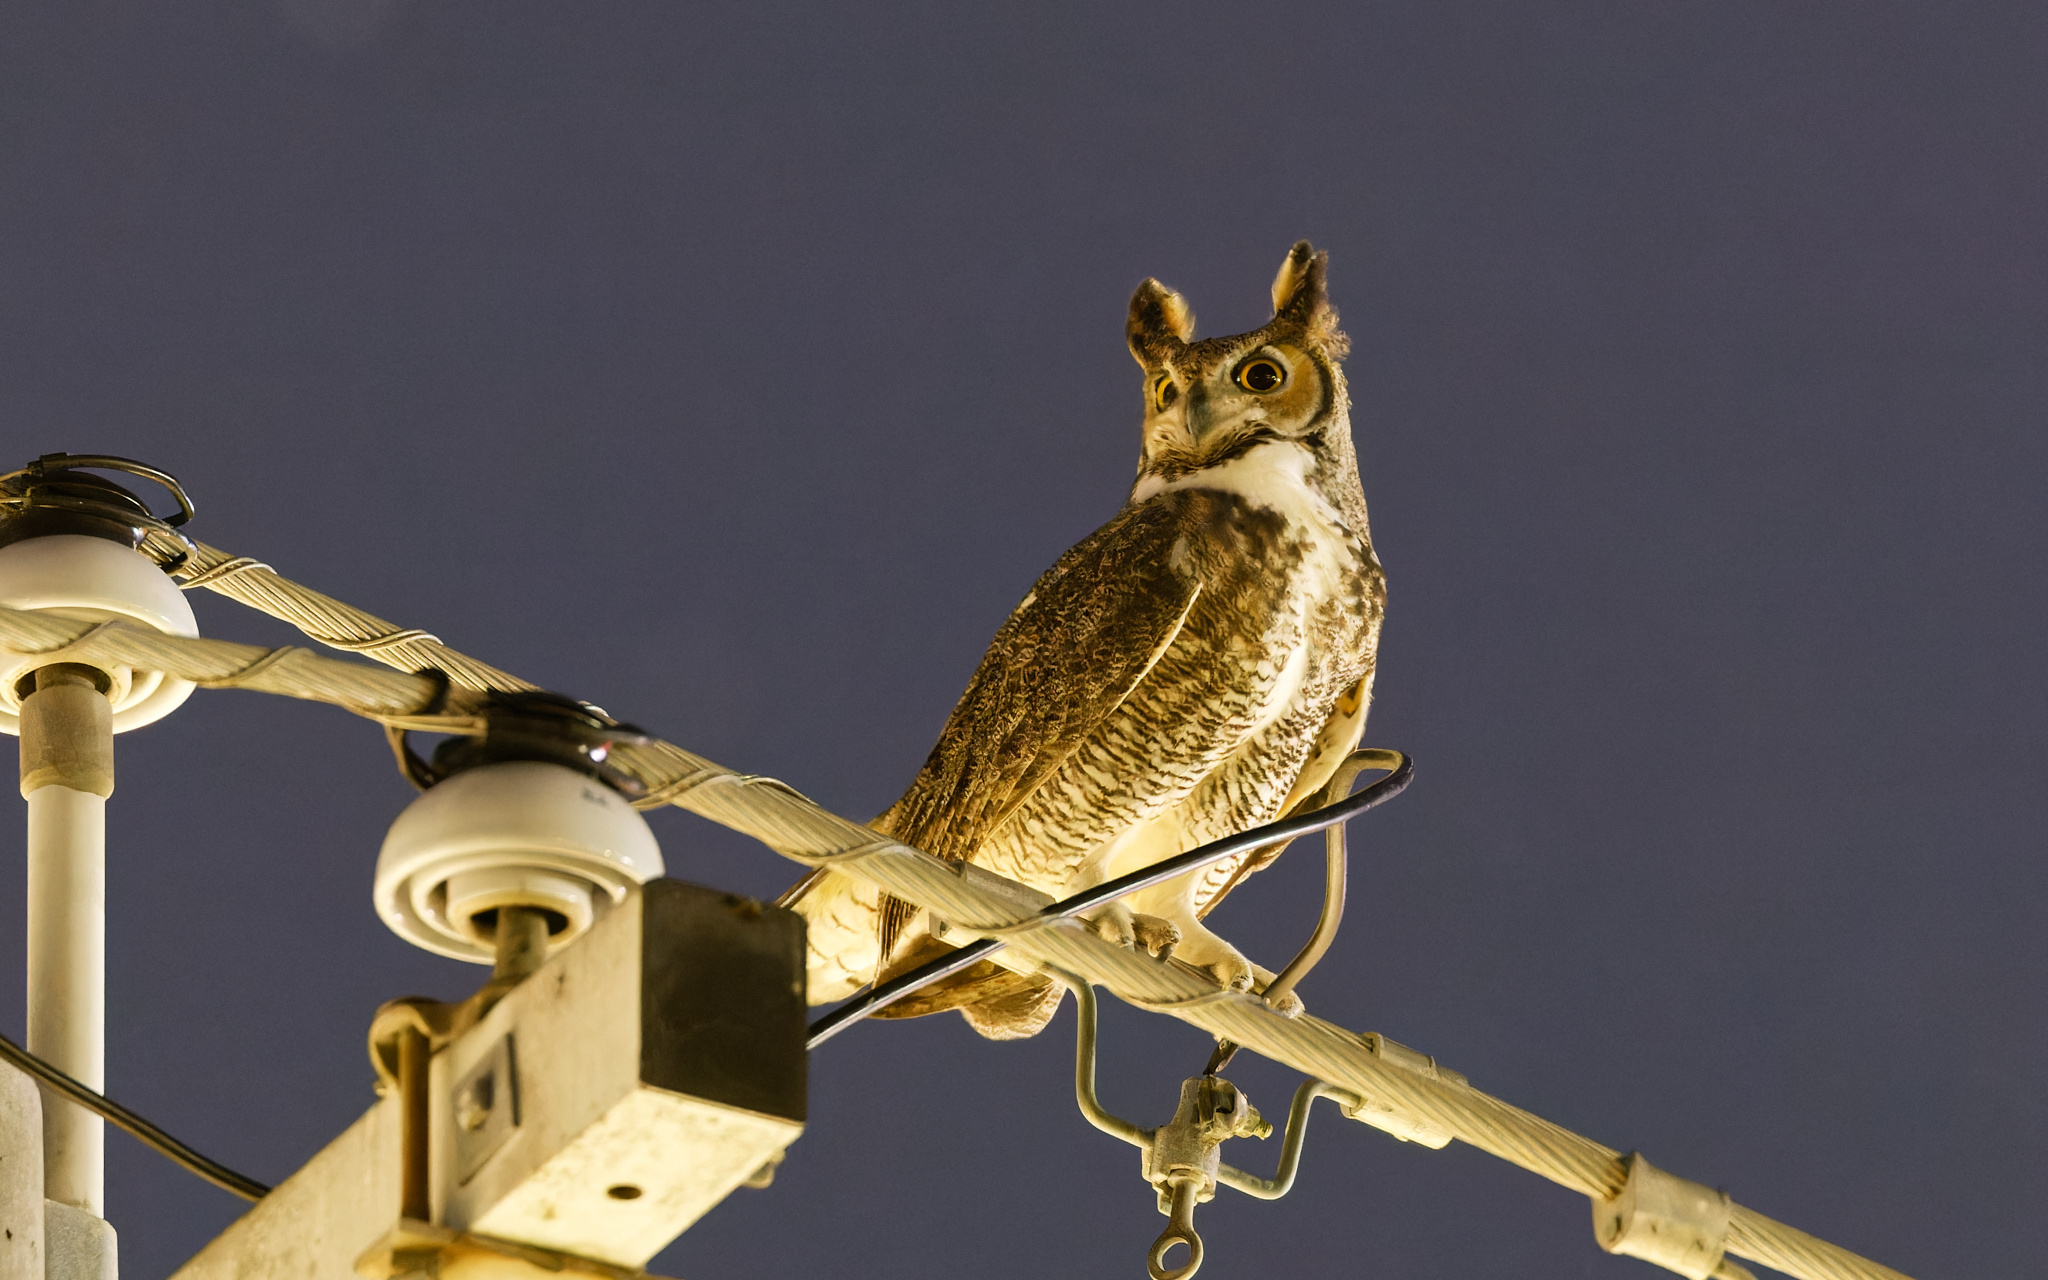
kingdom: Animalia
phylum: Chordata
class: Aves
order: Strigiformes
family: Strigidae
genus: Bubo
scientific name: Bubo virginianus
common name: Great horned owl
